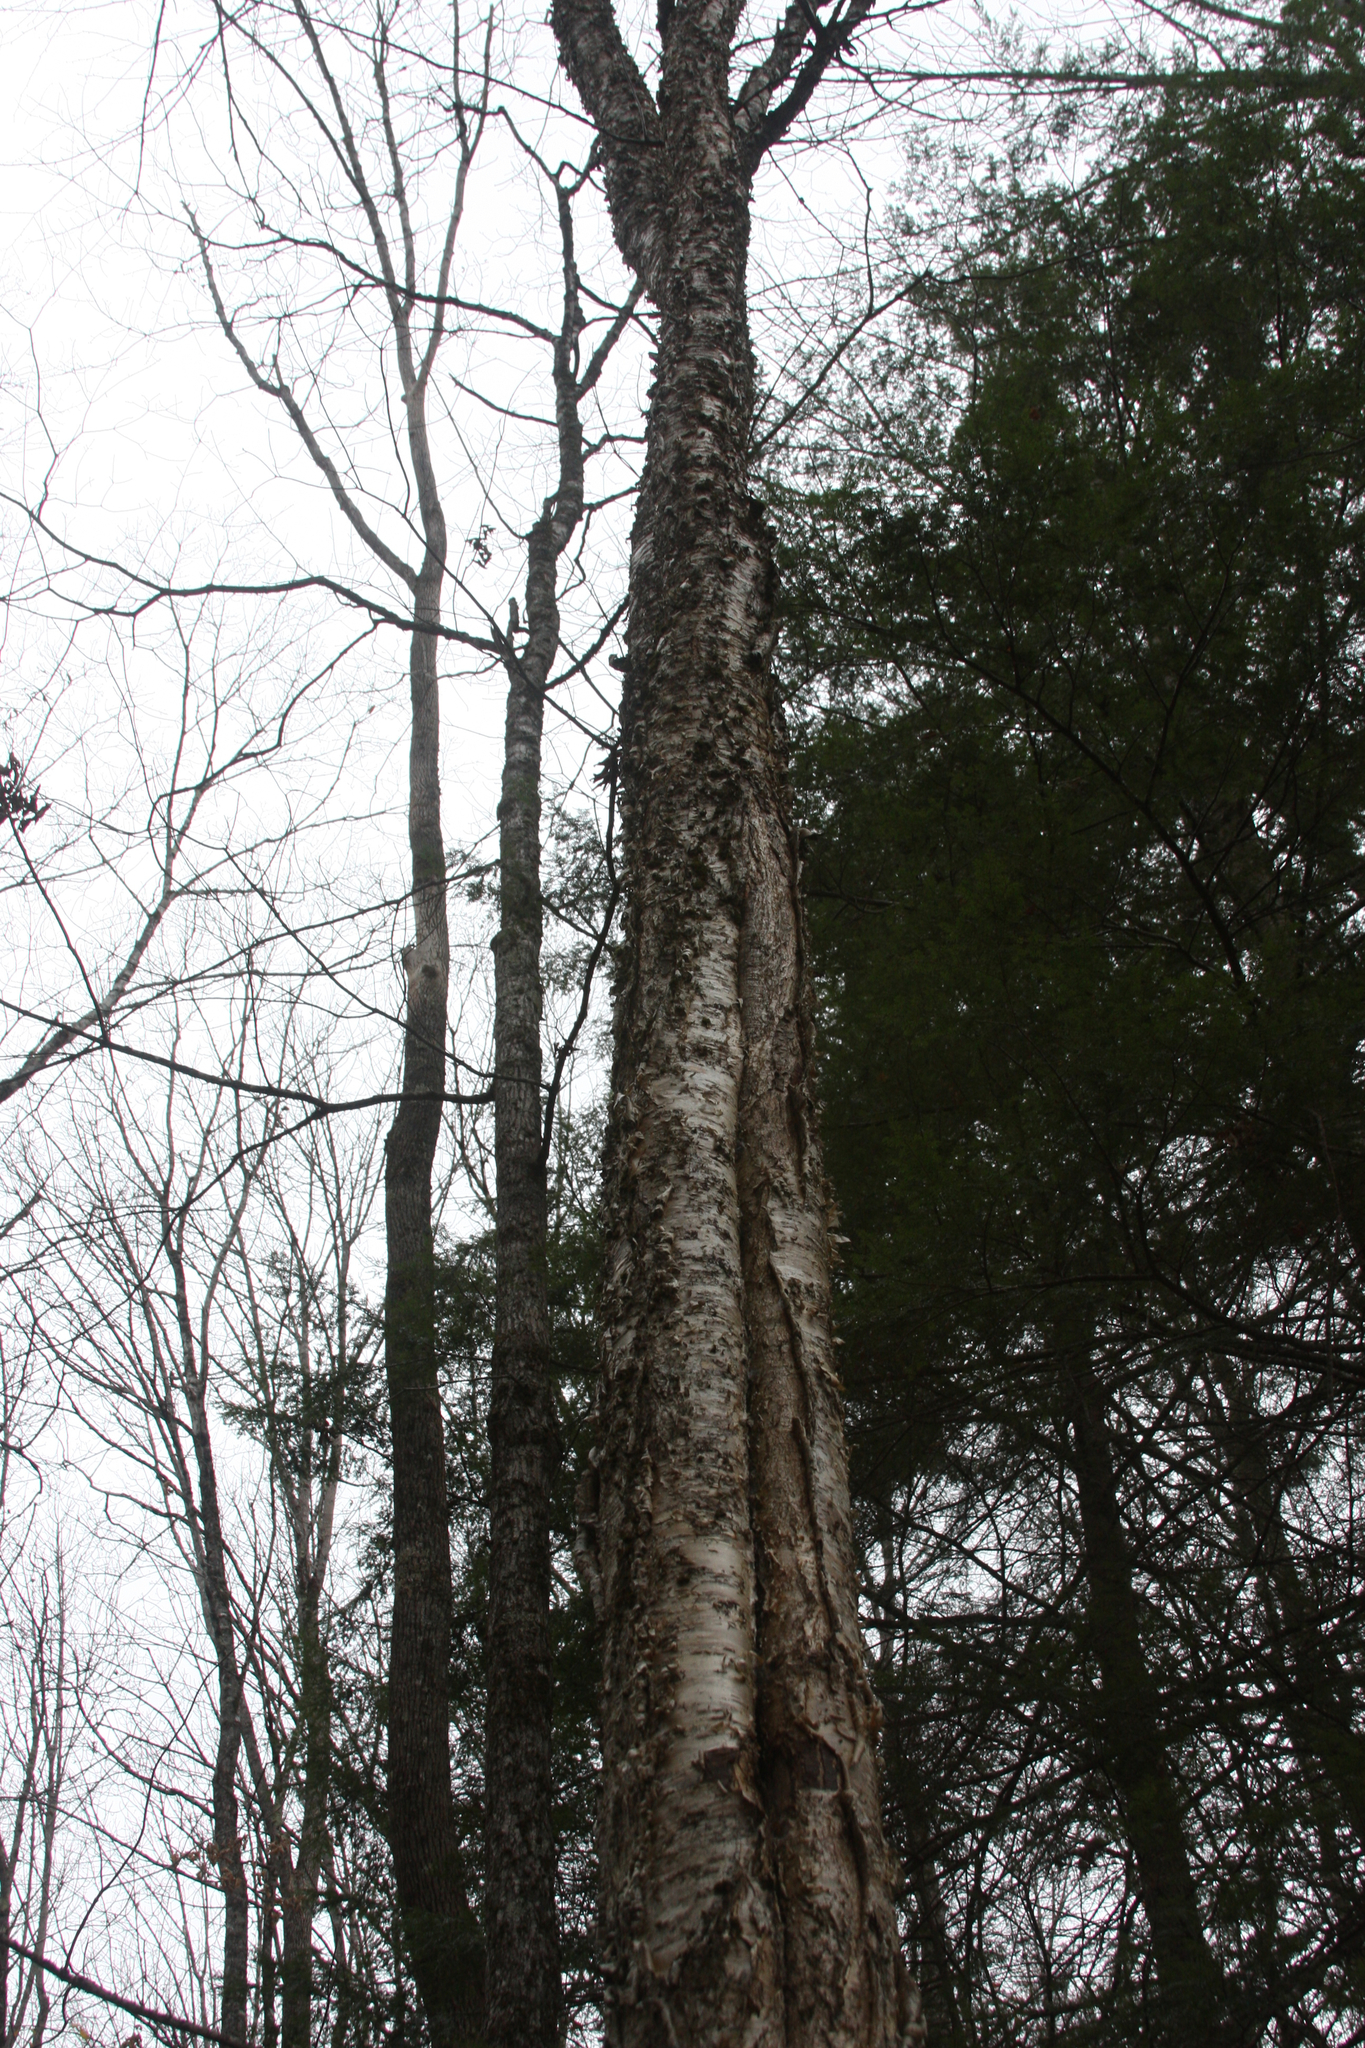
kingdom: Plantae
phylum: Tracheophyta
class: Magnoliopsida
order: Fagales
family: Betulaceae
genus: Betula
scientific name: Betula alleghaniensis
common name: Yellow birch
